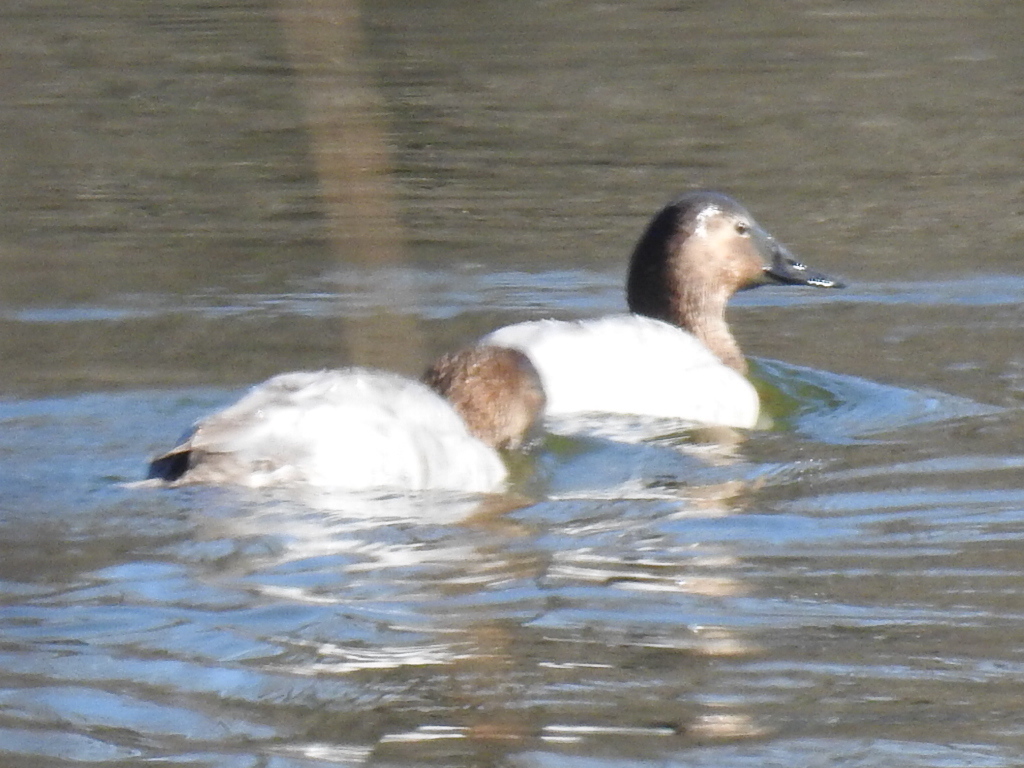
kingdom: Animalia
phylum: Chordata
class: Aves
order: Anseriformes
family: Anatidae
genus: Aythya
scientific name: Aythya valisineria
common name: Canvasback
